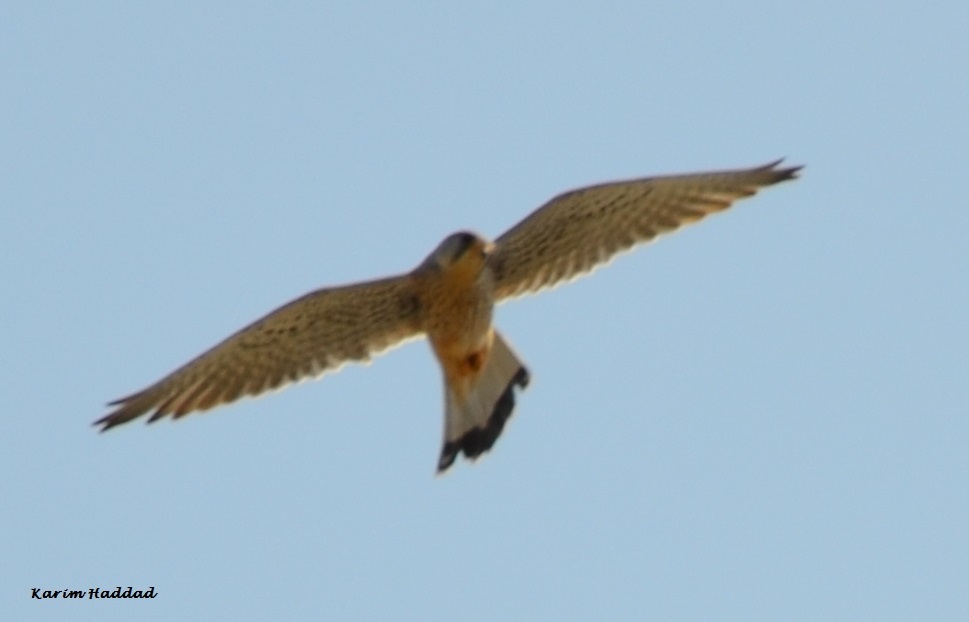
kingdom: Animalia
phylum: Chordata
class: Aves
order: Falconiformes
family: Falconidae
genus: Falco
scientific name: Falco tinnunculus
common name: Common kestrel
